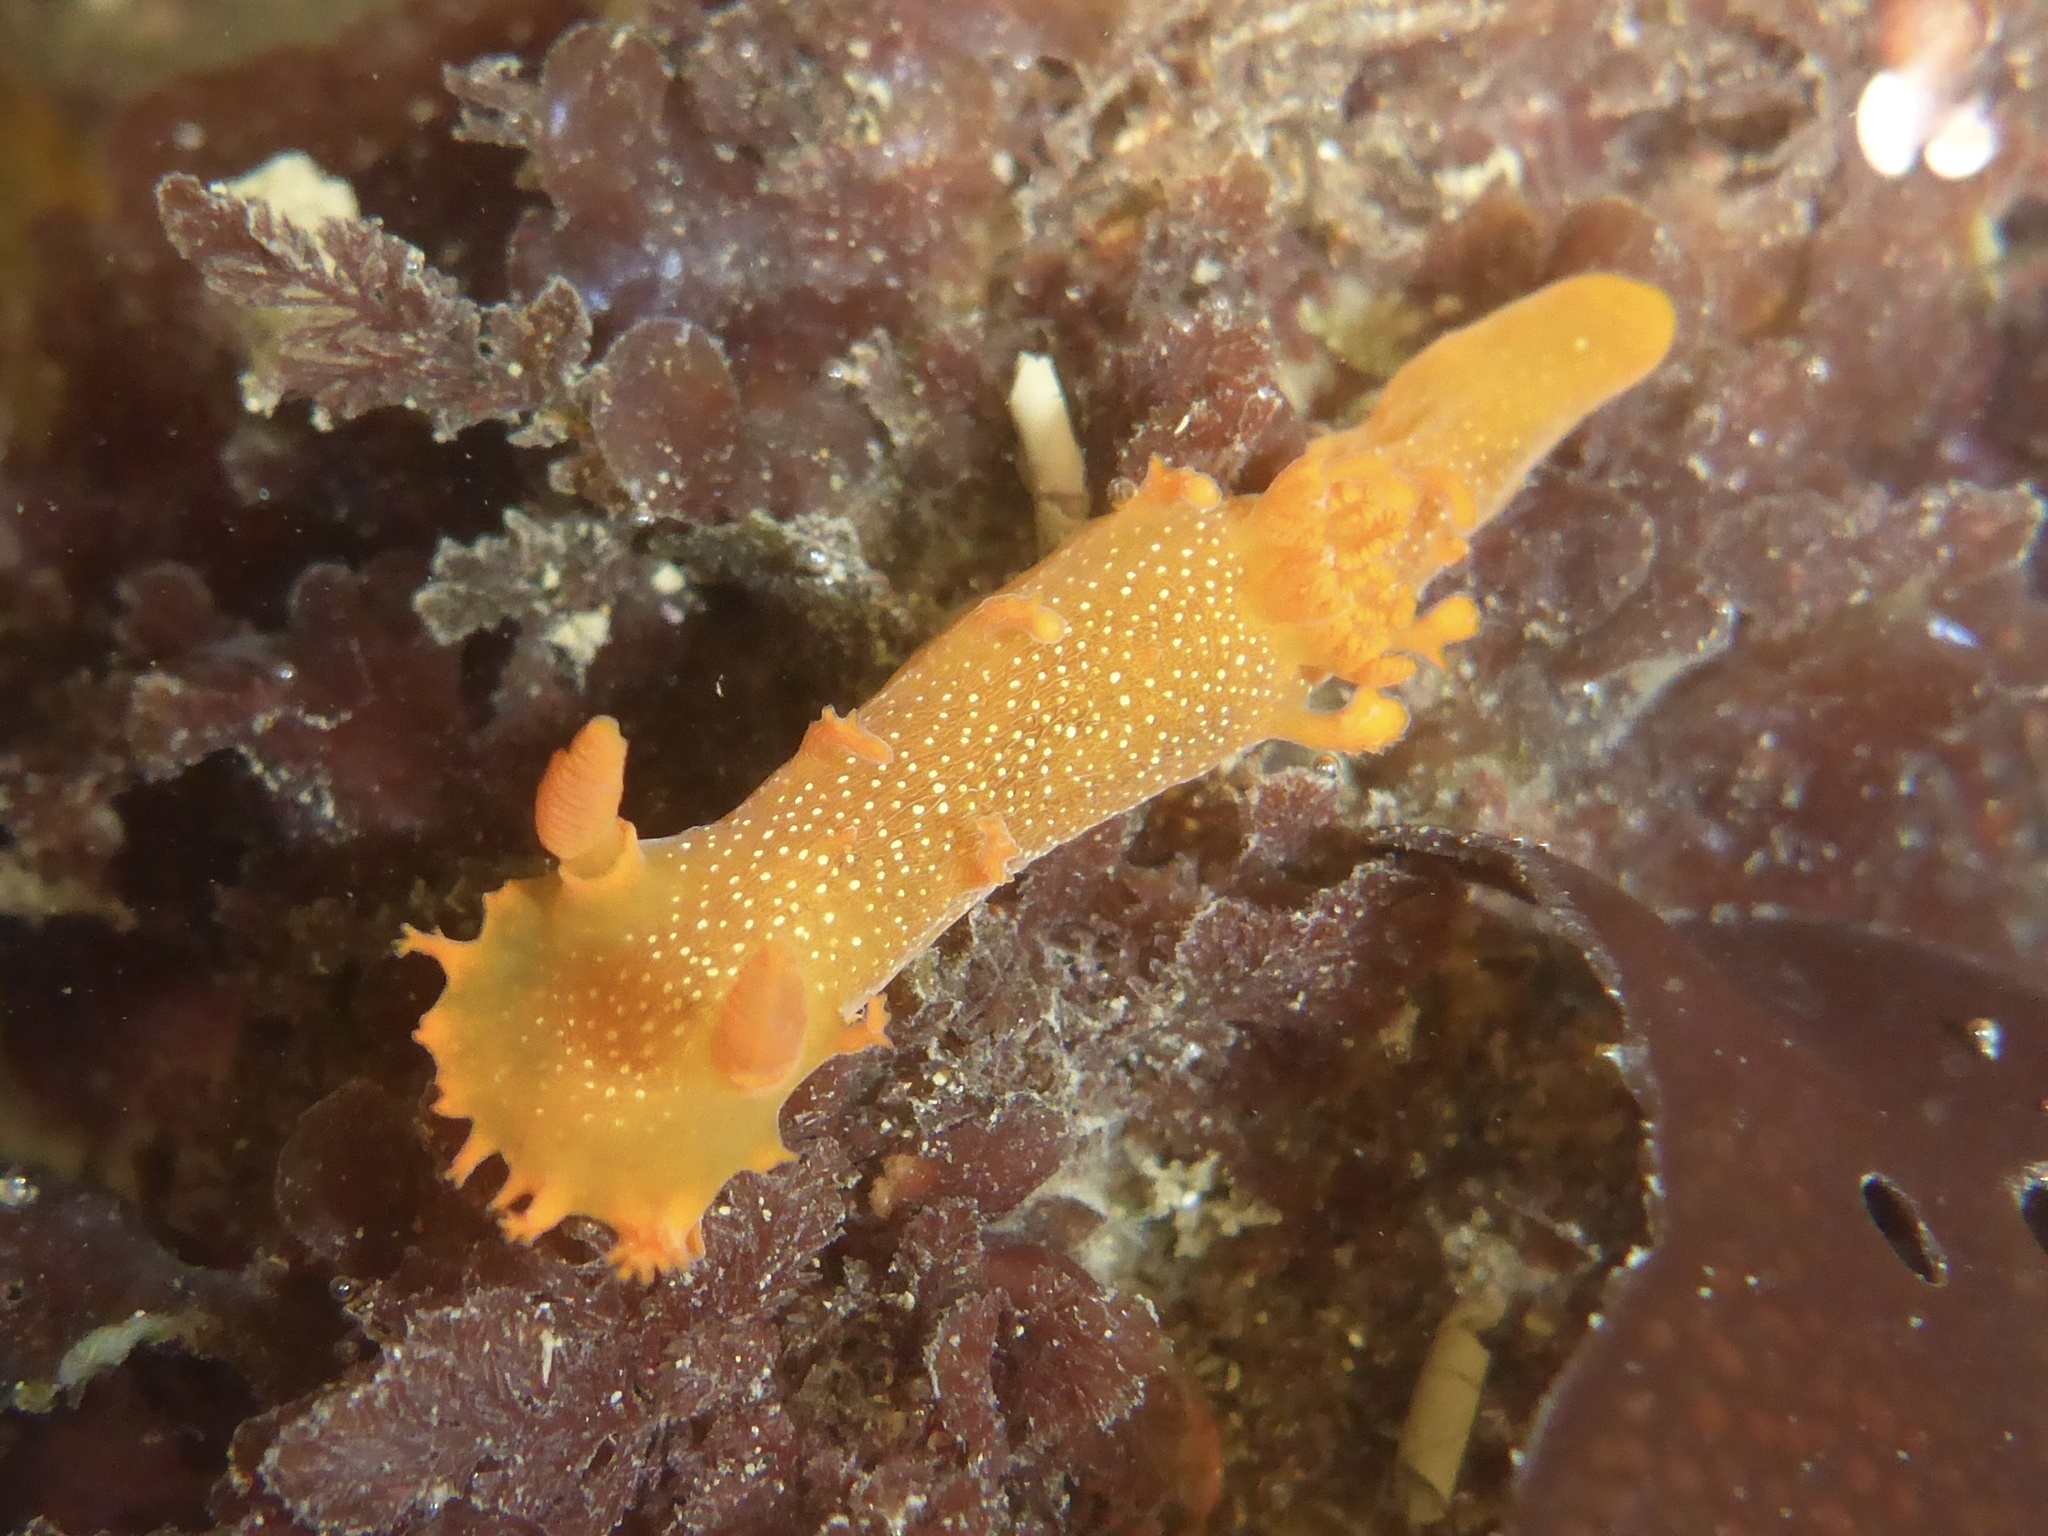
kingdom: Animalia
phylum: Mollusca
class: Gastropoda
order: Nudibranchia
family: Polyceridae
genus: Triopha
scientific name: Triopha maculata
